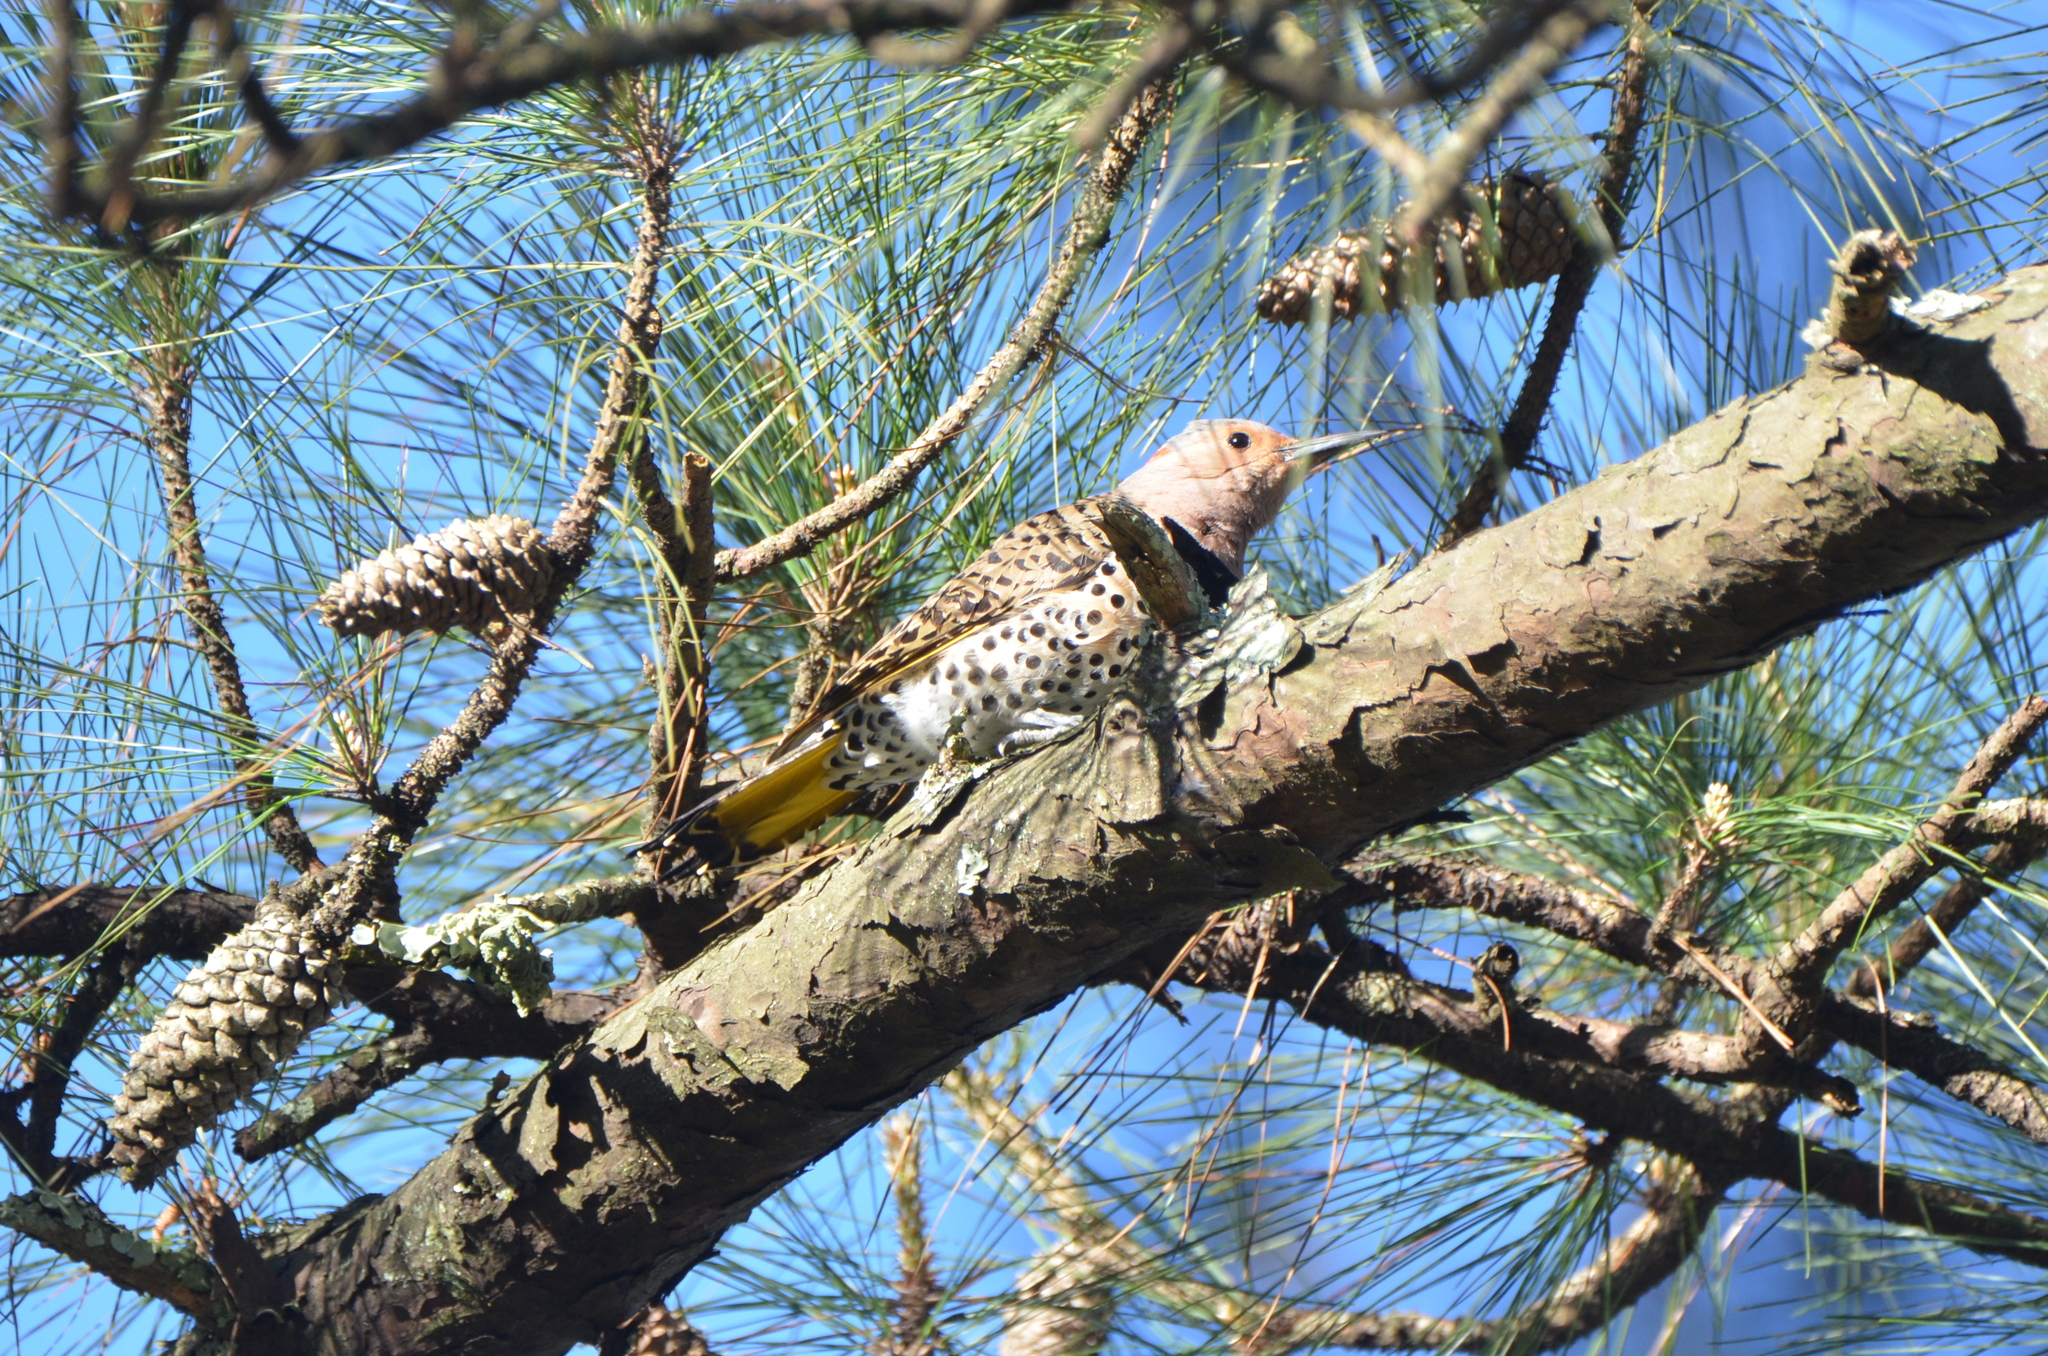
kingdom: Animalia
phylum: Chordata
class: Aves
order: Piciformes
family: Picidae
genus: Colaptes
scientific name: Colaptes auratus
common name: Northern flicker
